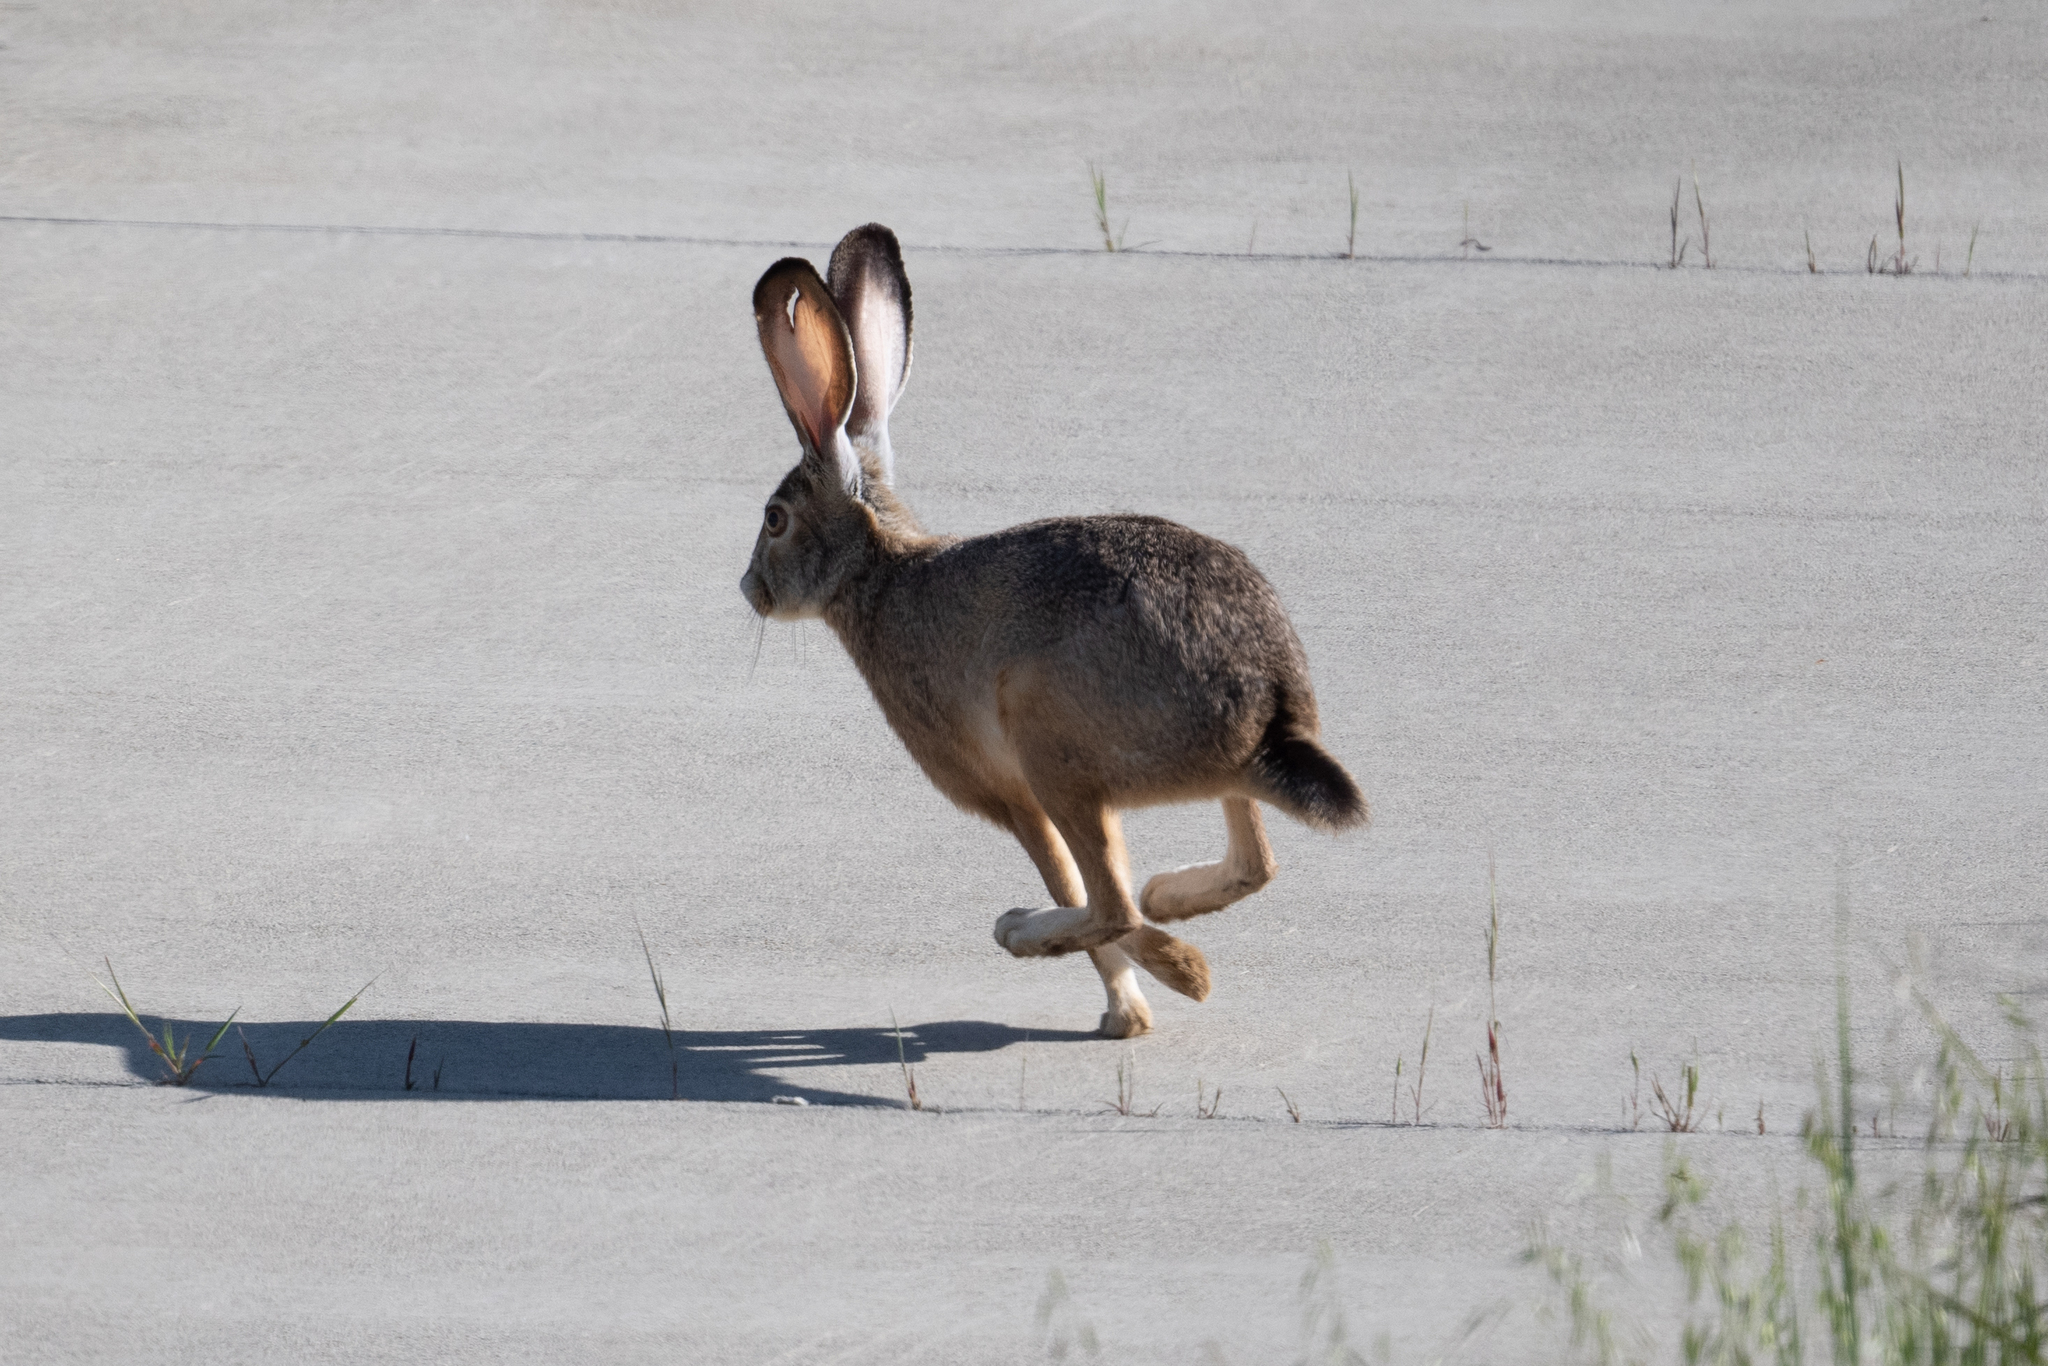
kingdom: Animalia
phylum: Chordata
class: Mammalia
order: Lagomorpha
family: Leporidae
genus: Lepus
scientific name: Lepus californicus
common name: Black-tailed jackrabbit
